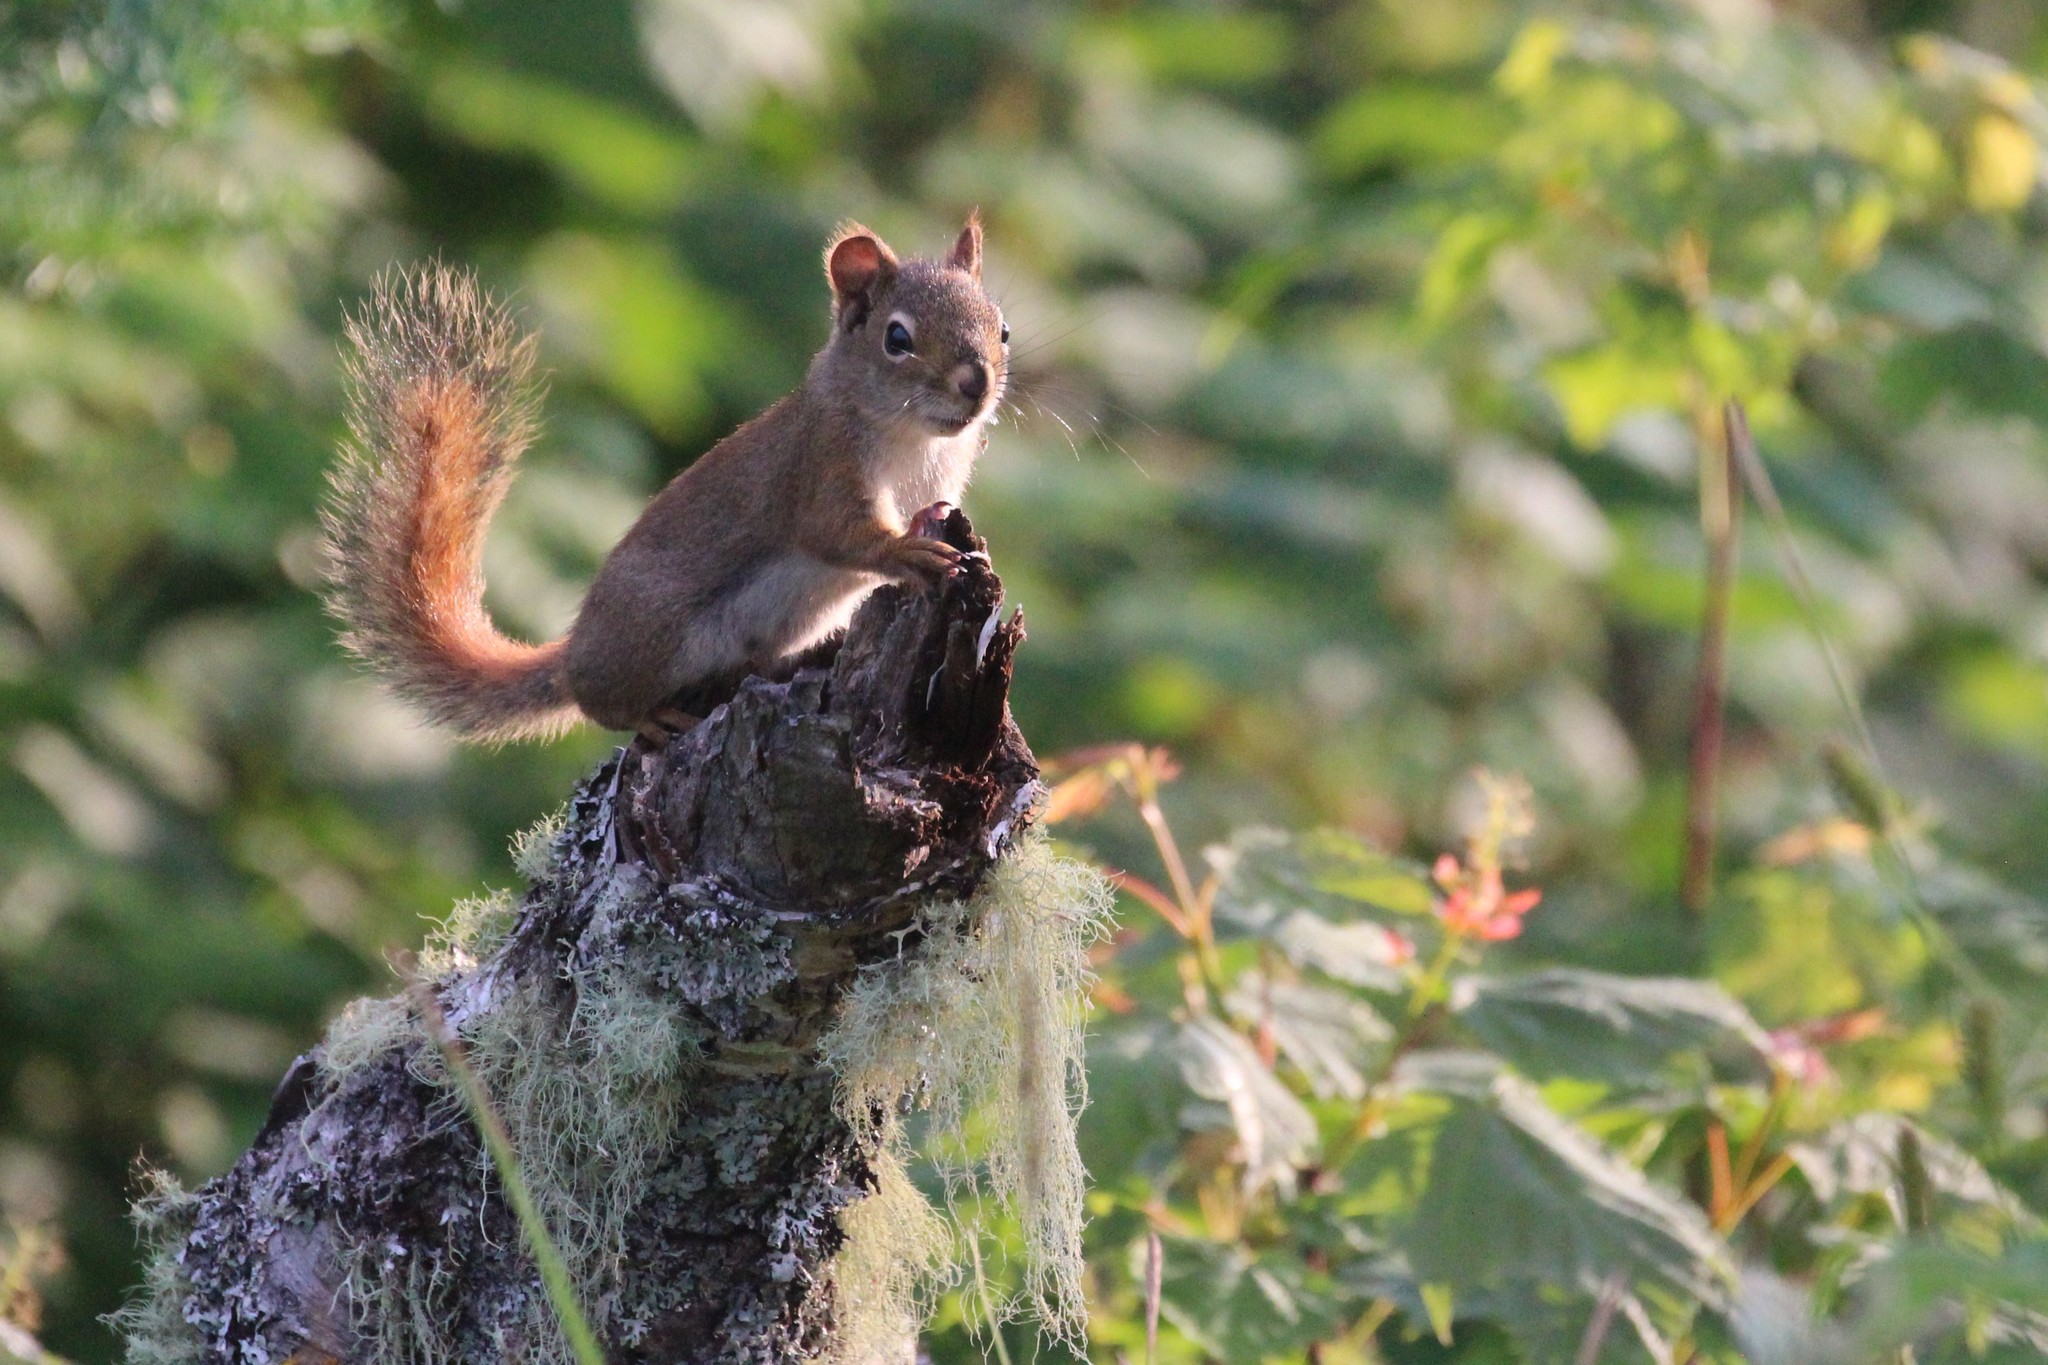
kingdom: Animalia
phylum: Chordata
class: Mammalia
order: Rodentia
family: Sciuridae
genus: Tamiasciurus
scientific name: Tamiasciurus hudsonicus
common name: Red squirrel
